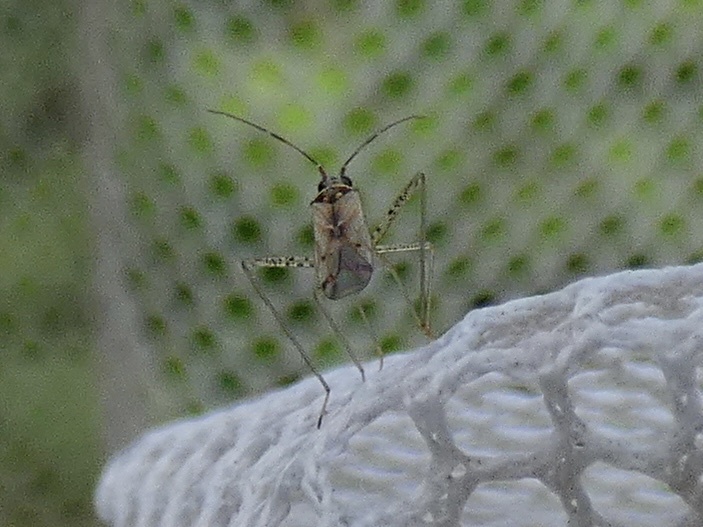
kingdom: Animalia
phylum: Arthropoda
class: Insecta
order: Hemiptera
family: Miridae
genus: Dicyphus
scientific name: Dicyphus errans
